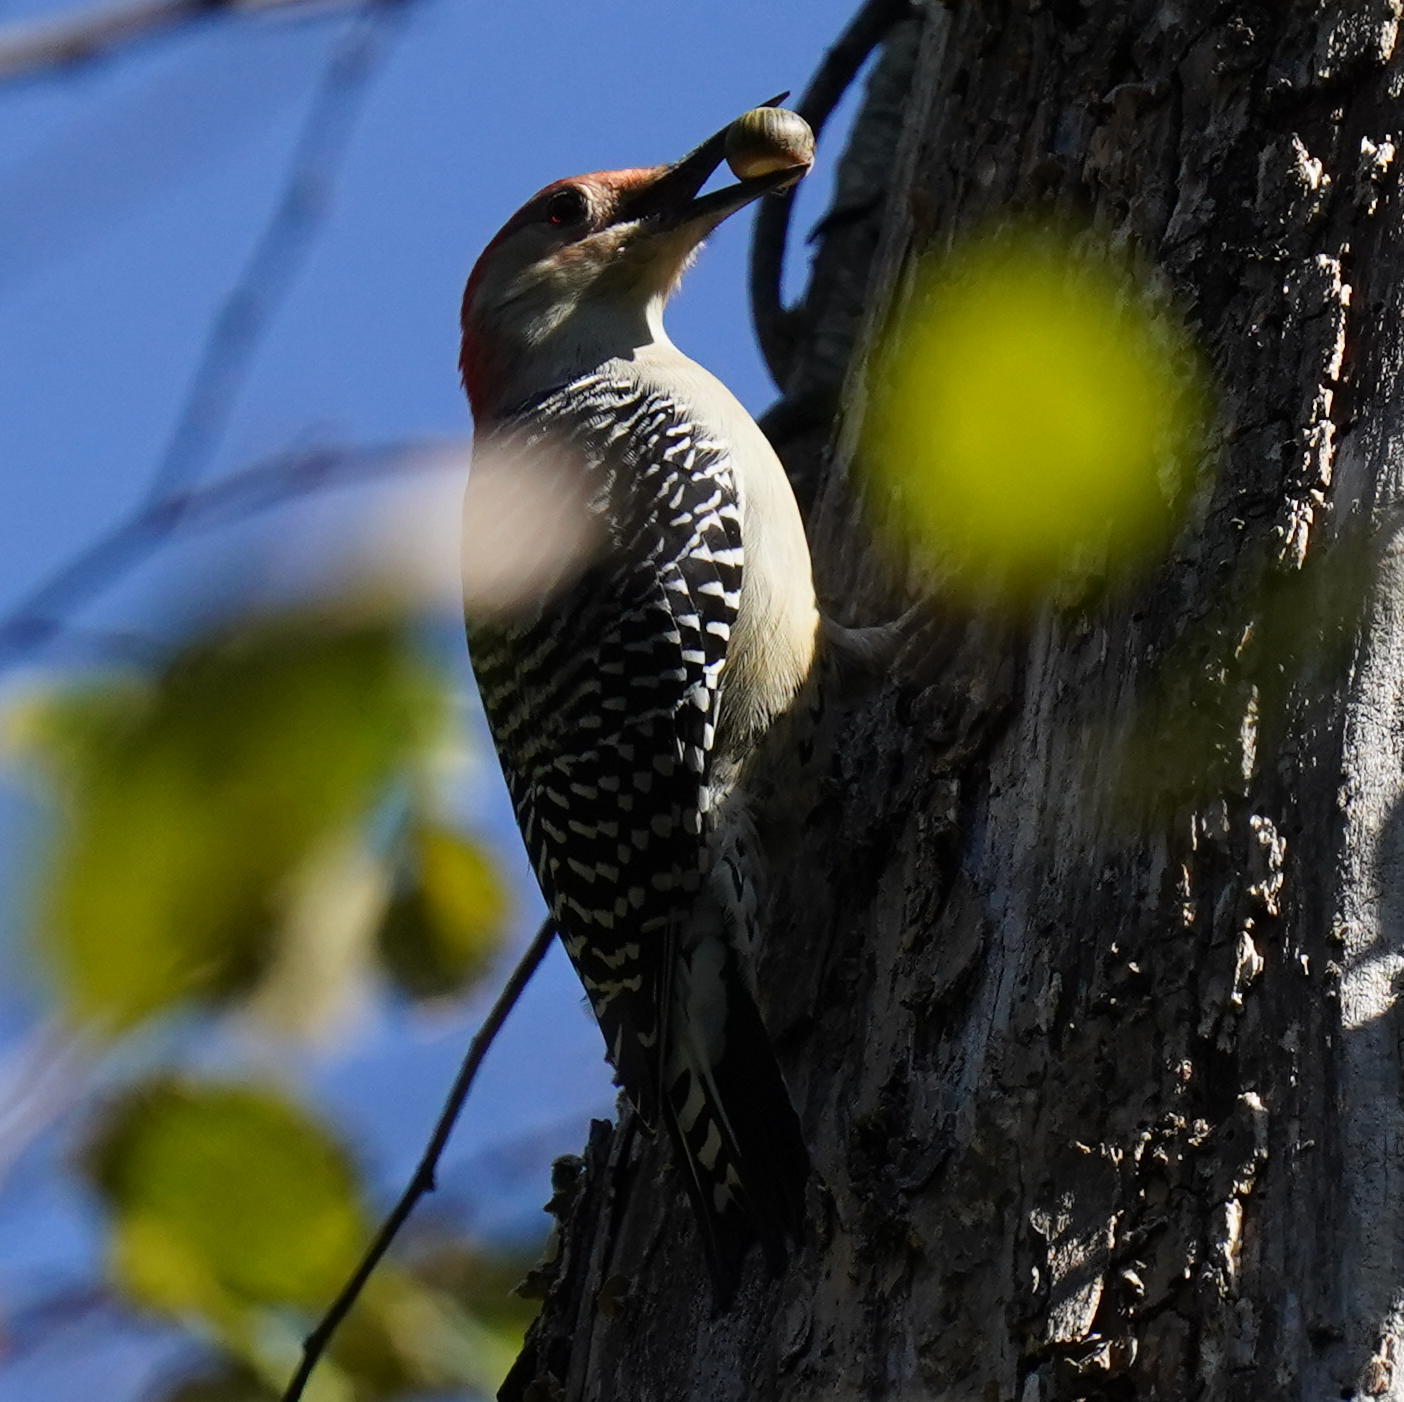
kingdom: Animalia
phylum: Chordata
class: Aves
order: Piciformes
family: Picidae
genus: Melanerpes
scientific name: Melanerpes carolinus
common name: Red-bellied woodpecker
